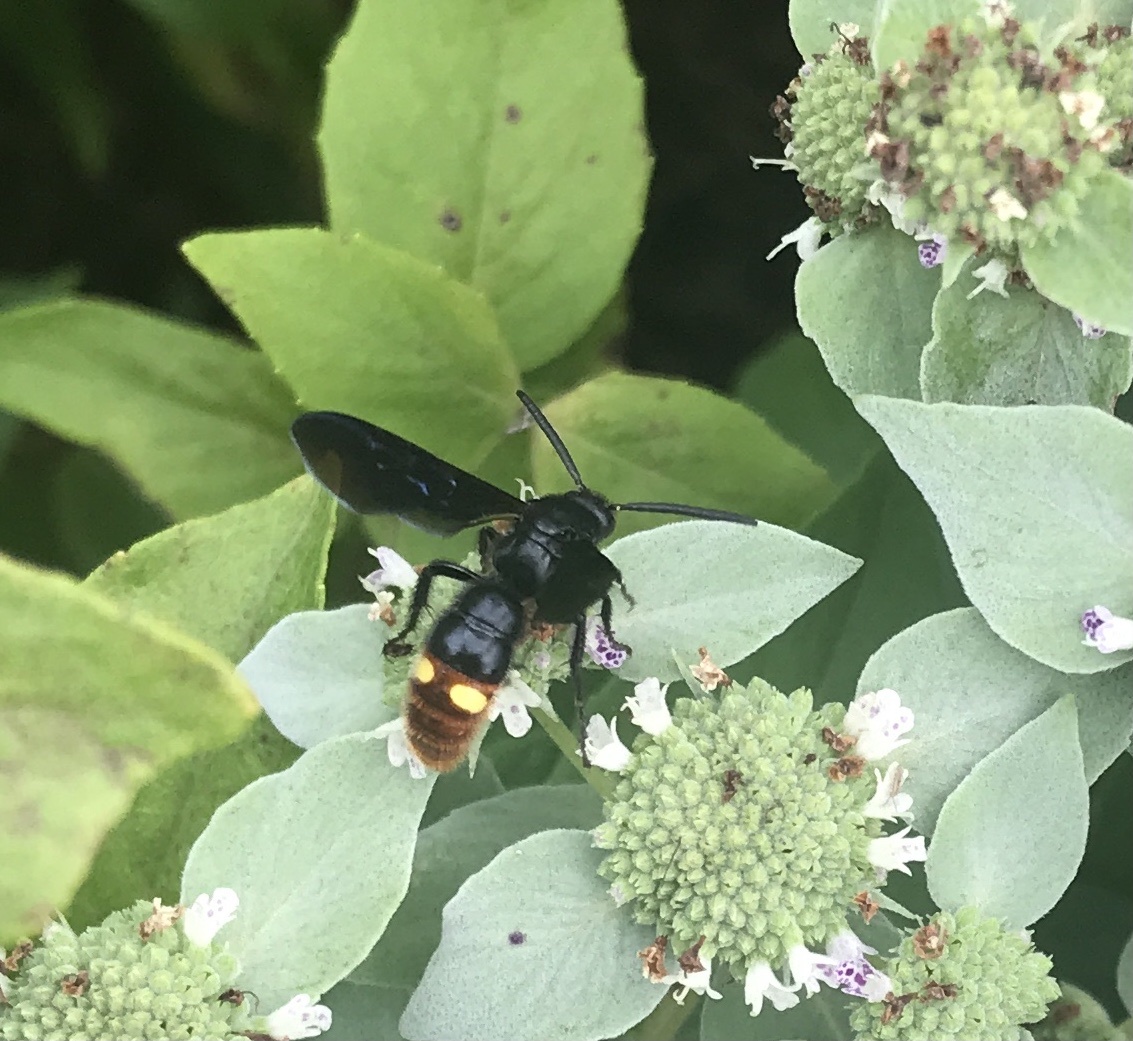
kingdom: Animalia
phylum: Arthropoda
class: Insecta
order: Hymenoptera
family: Scoliidae
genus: Scolia
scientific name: Scolia dubia
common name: Blue-winged scoliid wasp
